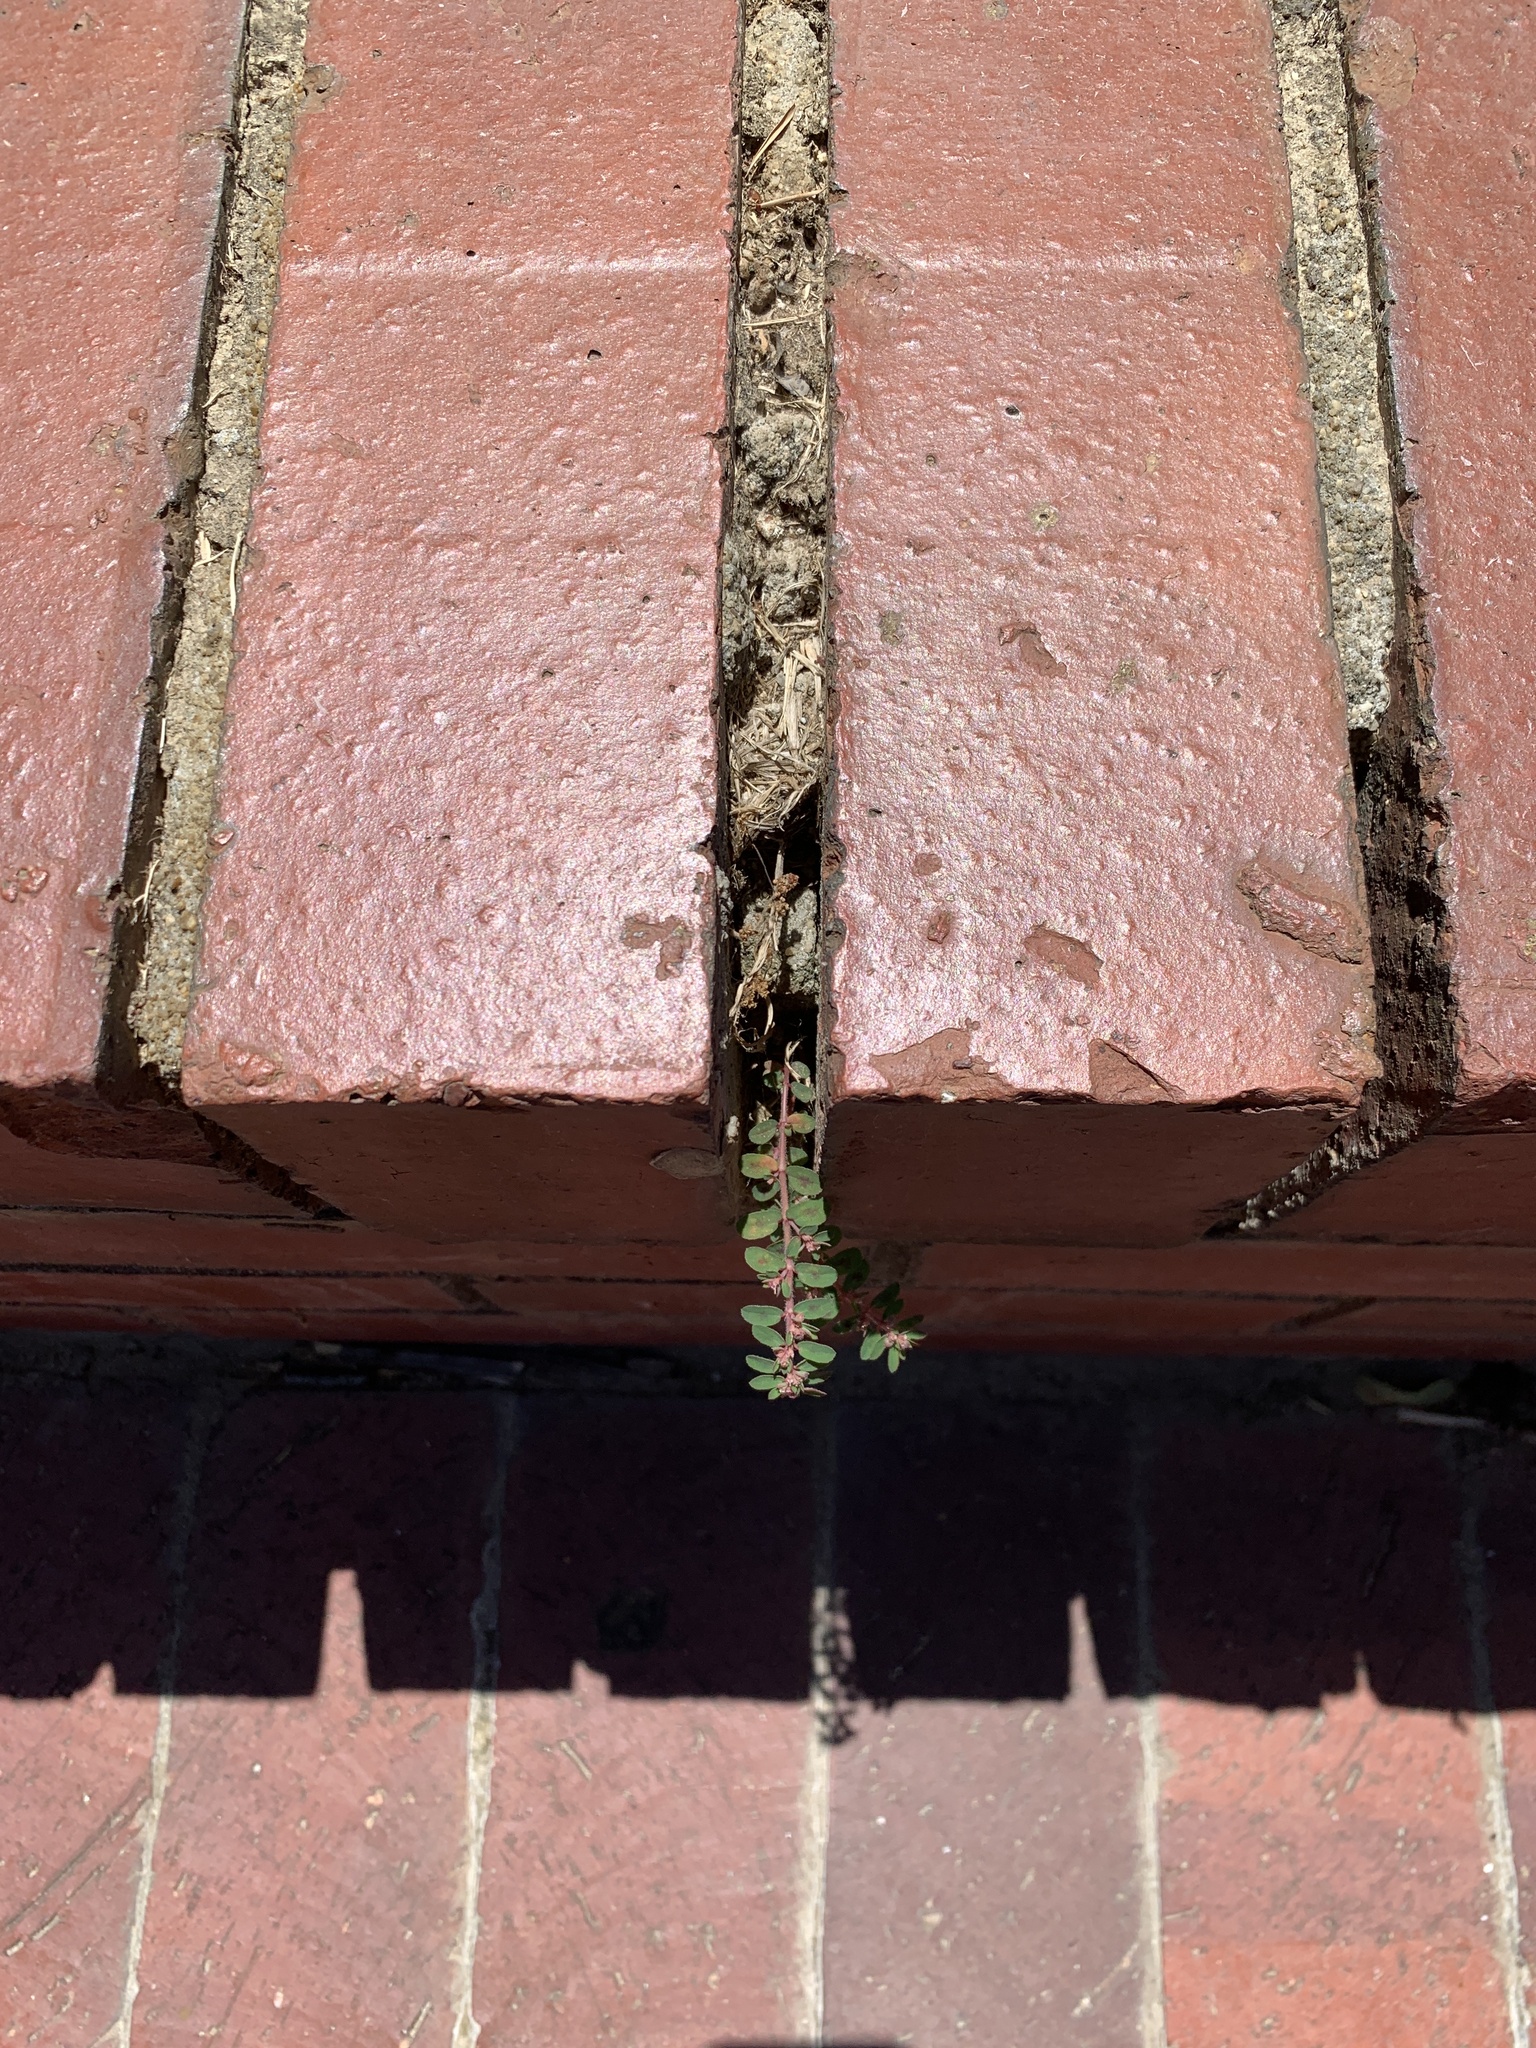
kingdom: Plantae
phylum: Tracheophyta
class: Magnoliopsida
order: Malpighiales
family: Euphorbiaceae
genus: Euphorbia
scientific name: Euphorbia maculata
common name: Spotted spurge
